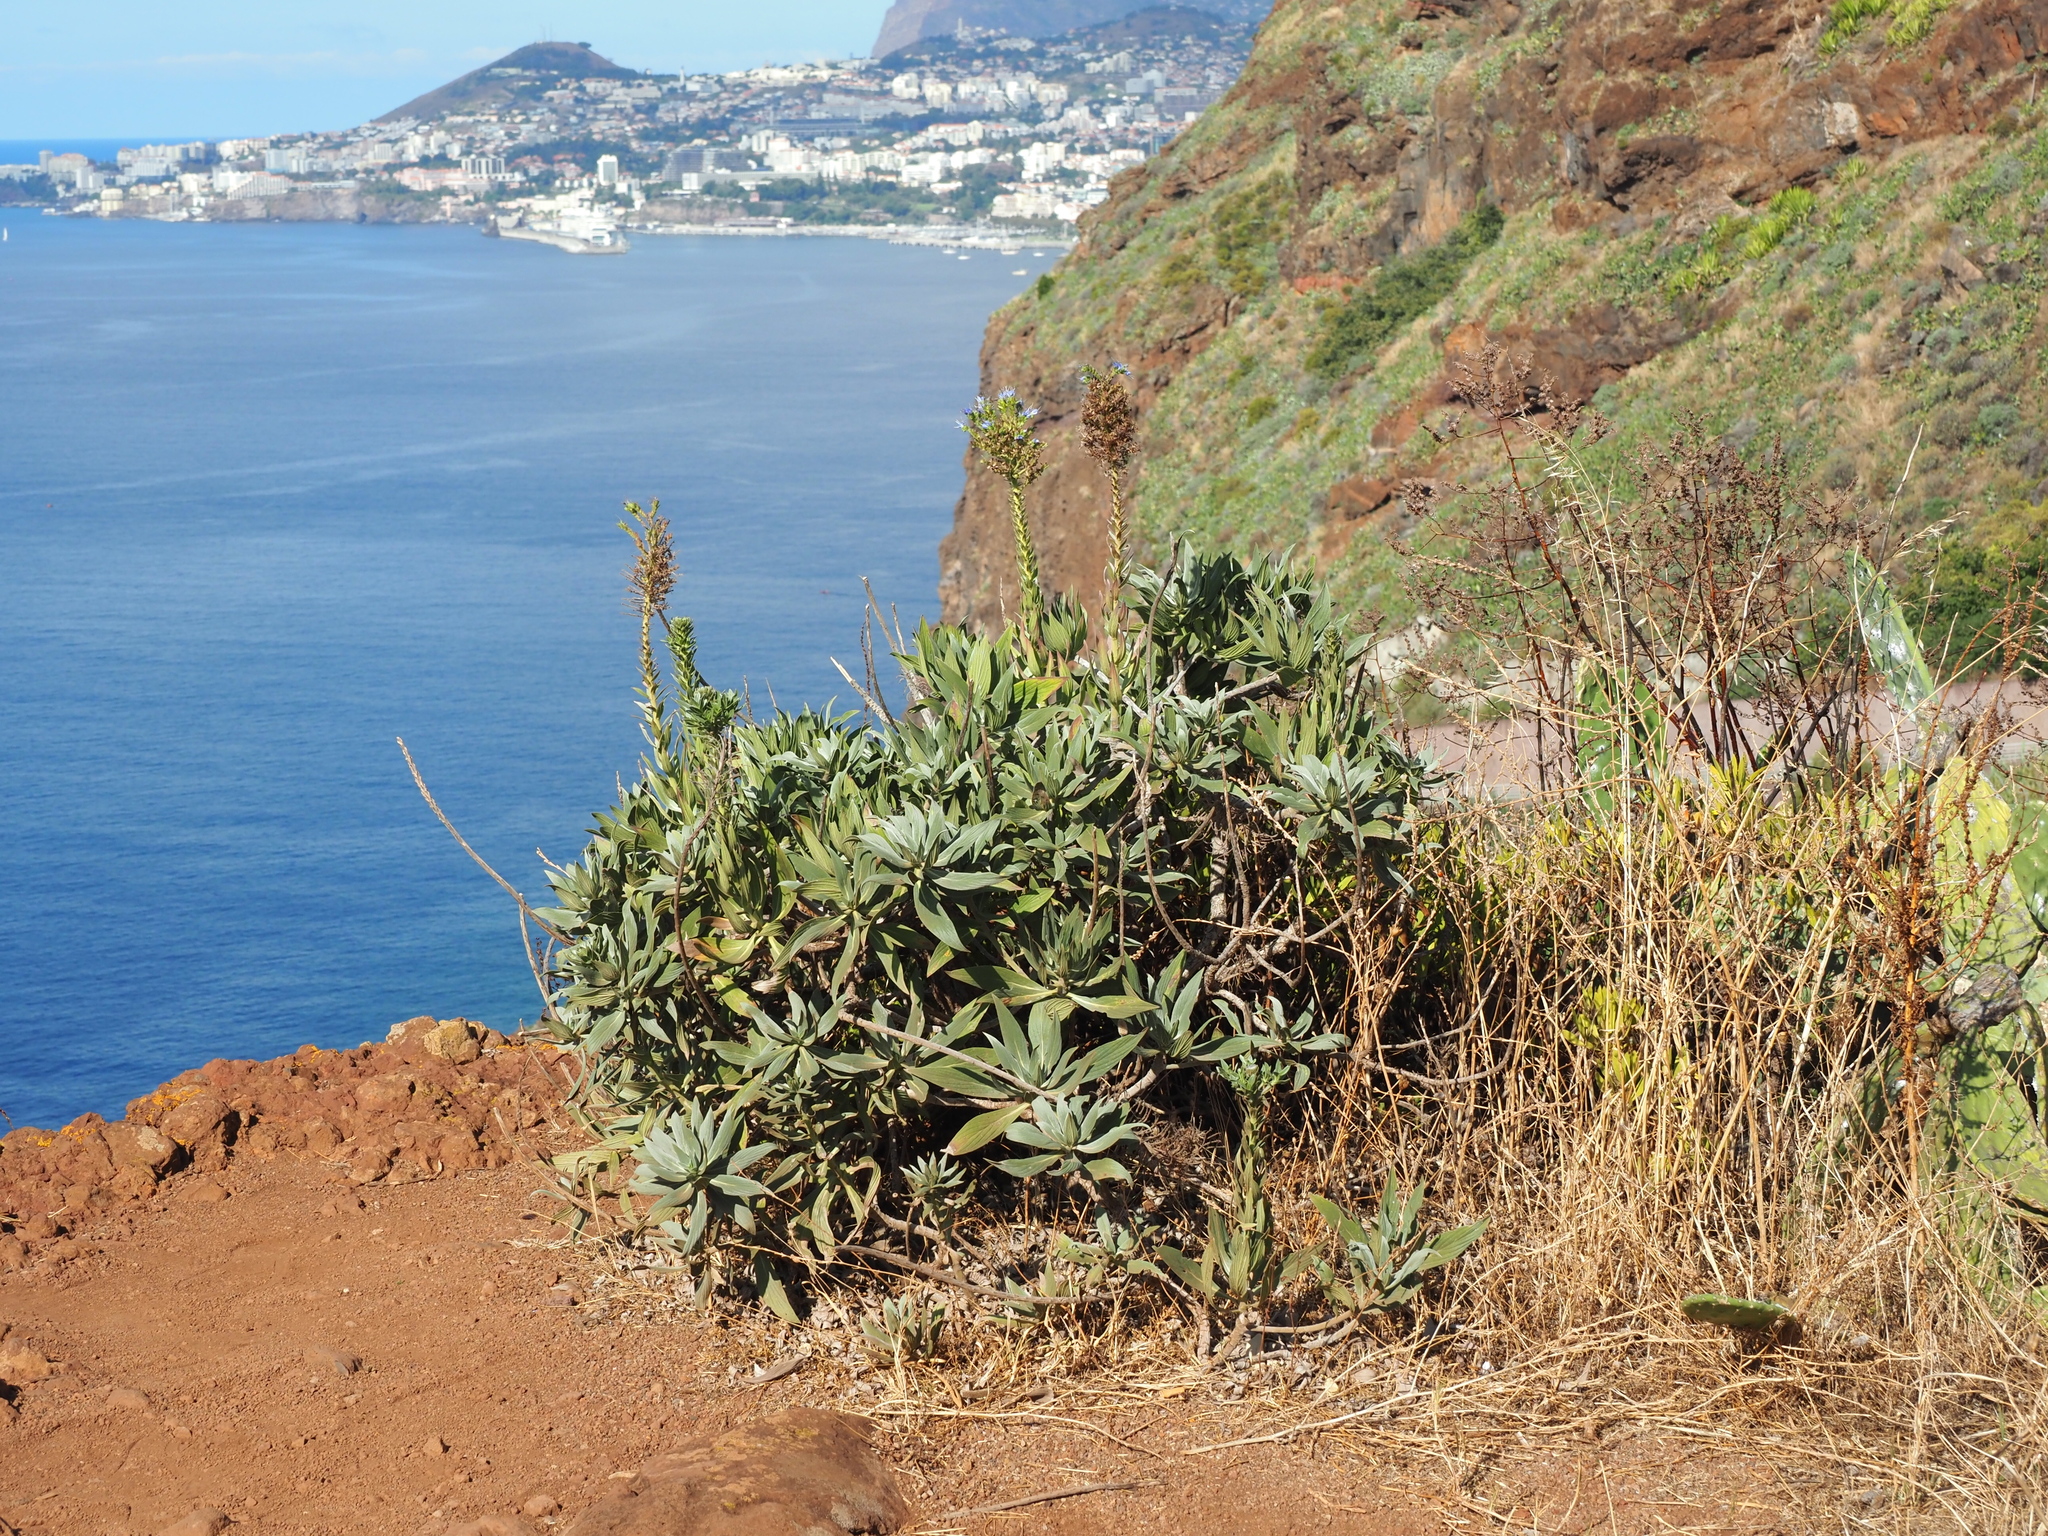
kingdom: Plantae
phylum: Tracheophyta
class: Magnoliopsida
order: Boraginales
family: Boraginaceae
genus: Echium
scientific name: Echium nervosum
